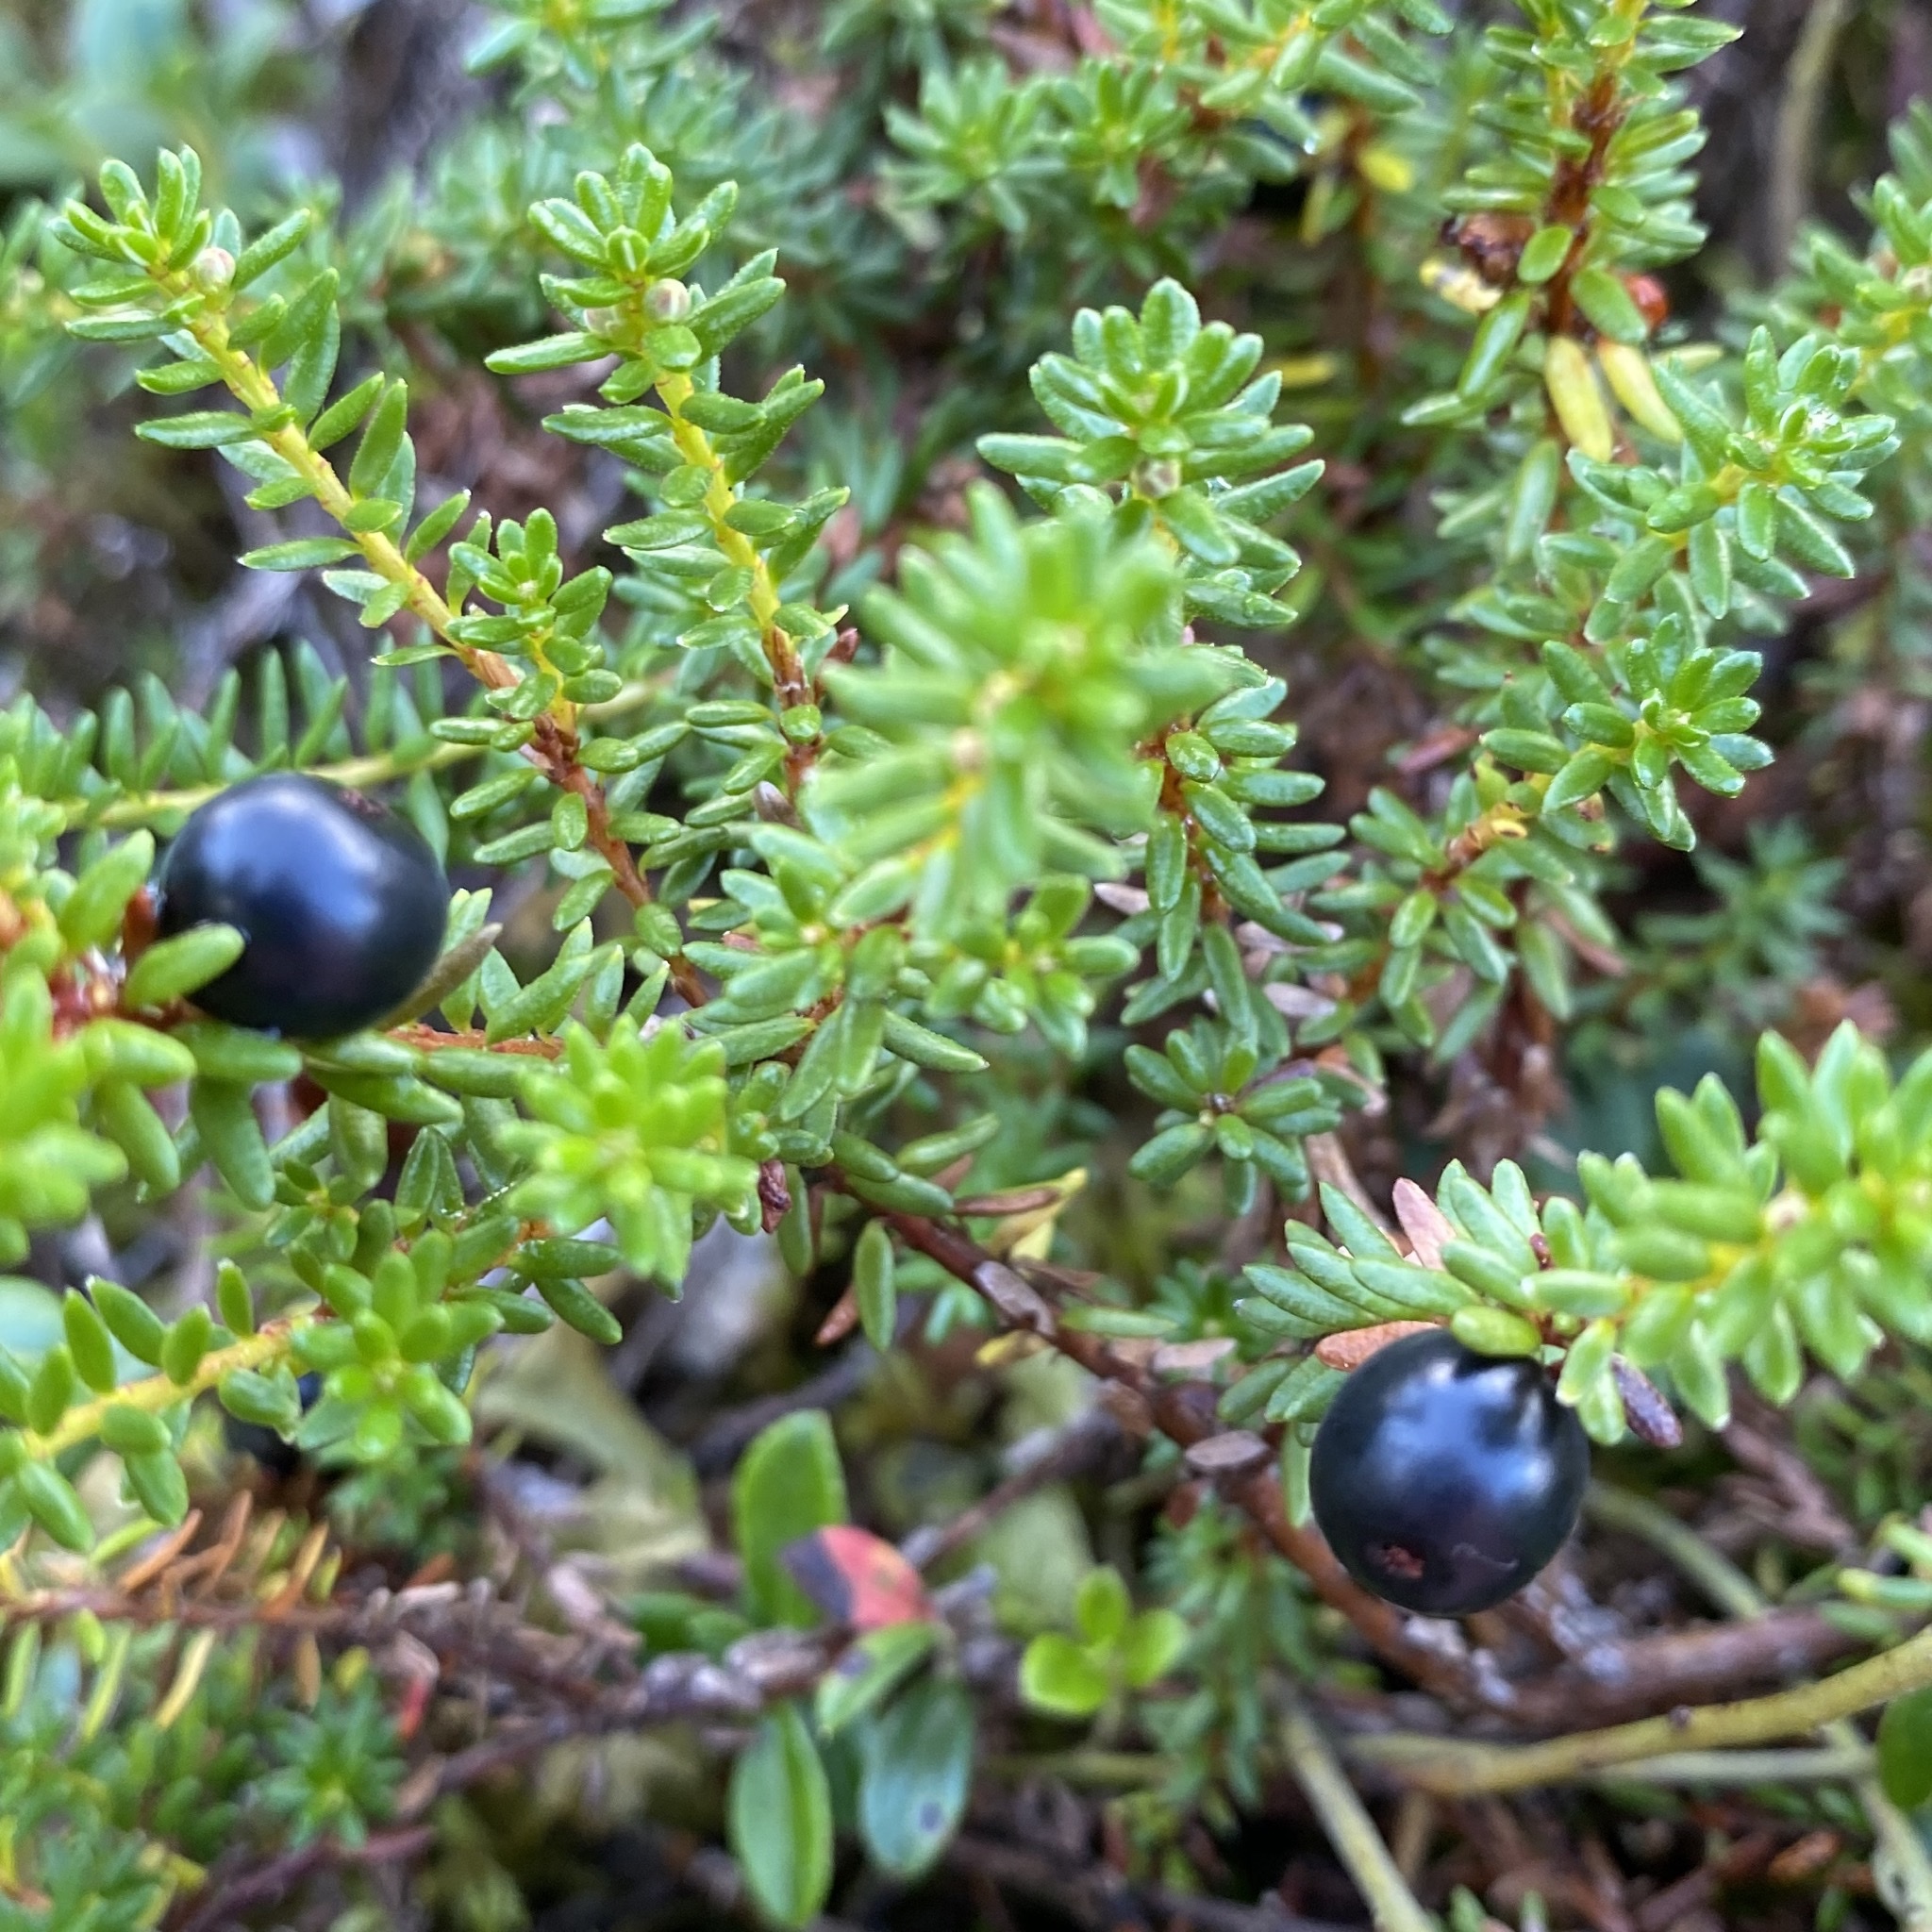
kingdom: Plantae
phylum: Tracheophyta
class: Magnoliopsida
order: Ericales
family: Ericaceae
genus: Empetrum
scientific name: Empetrum nigrum
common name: Black crowberry
